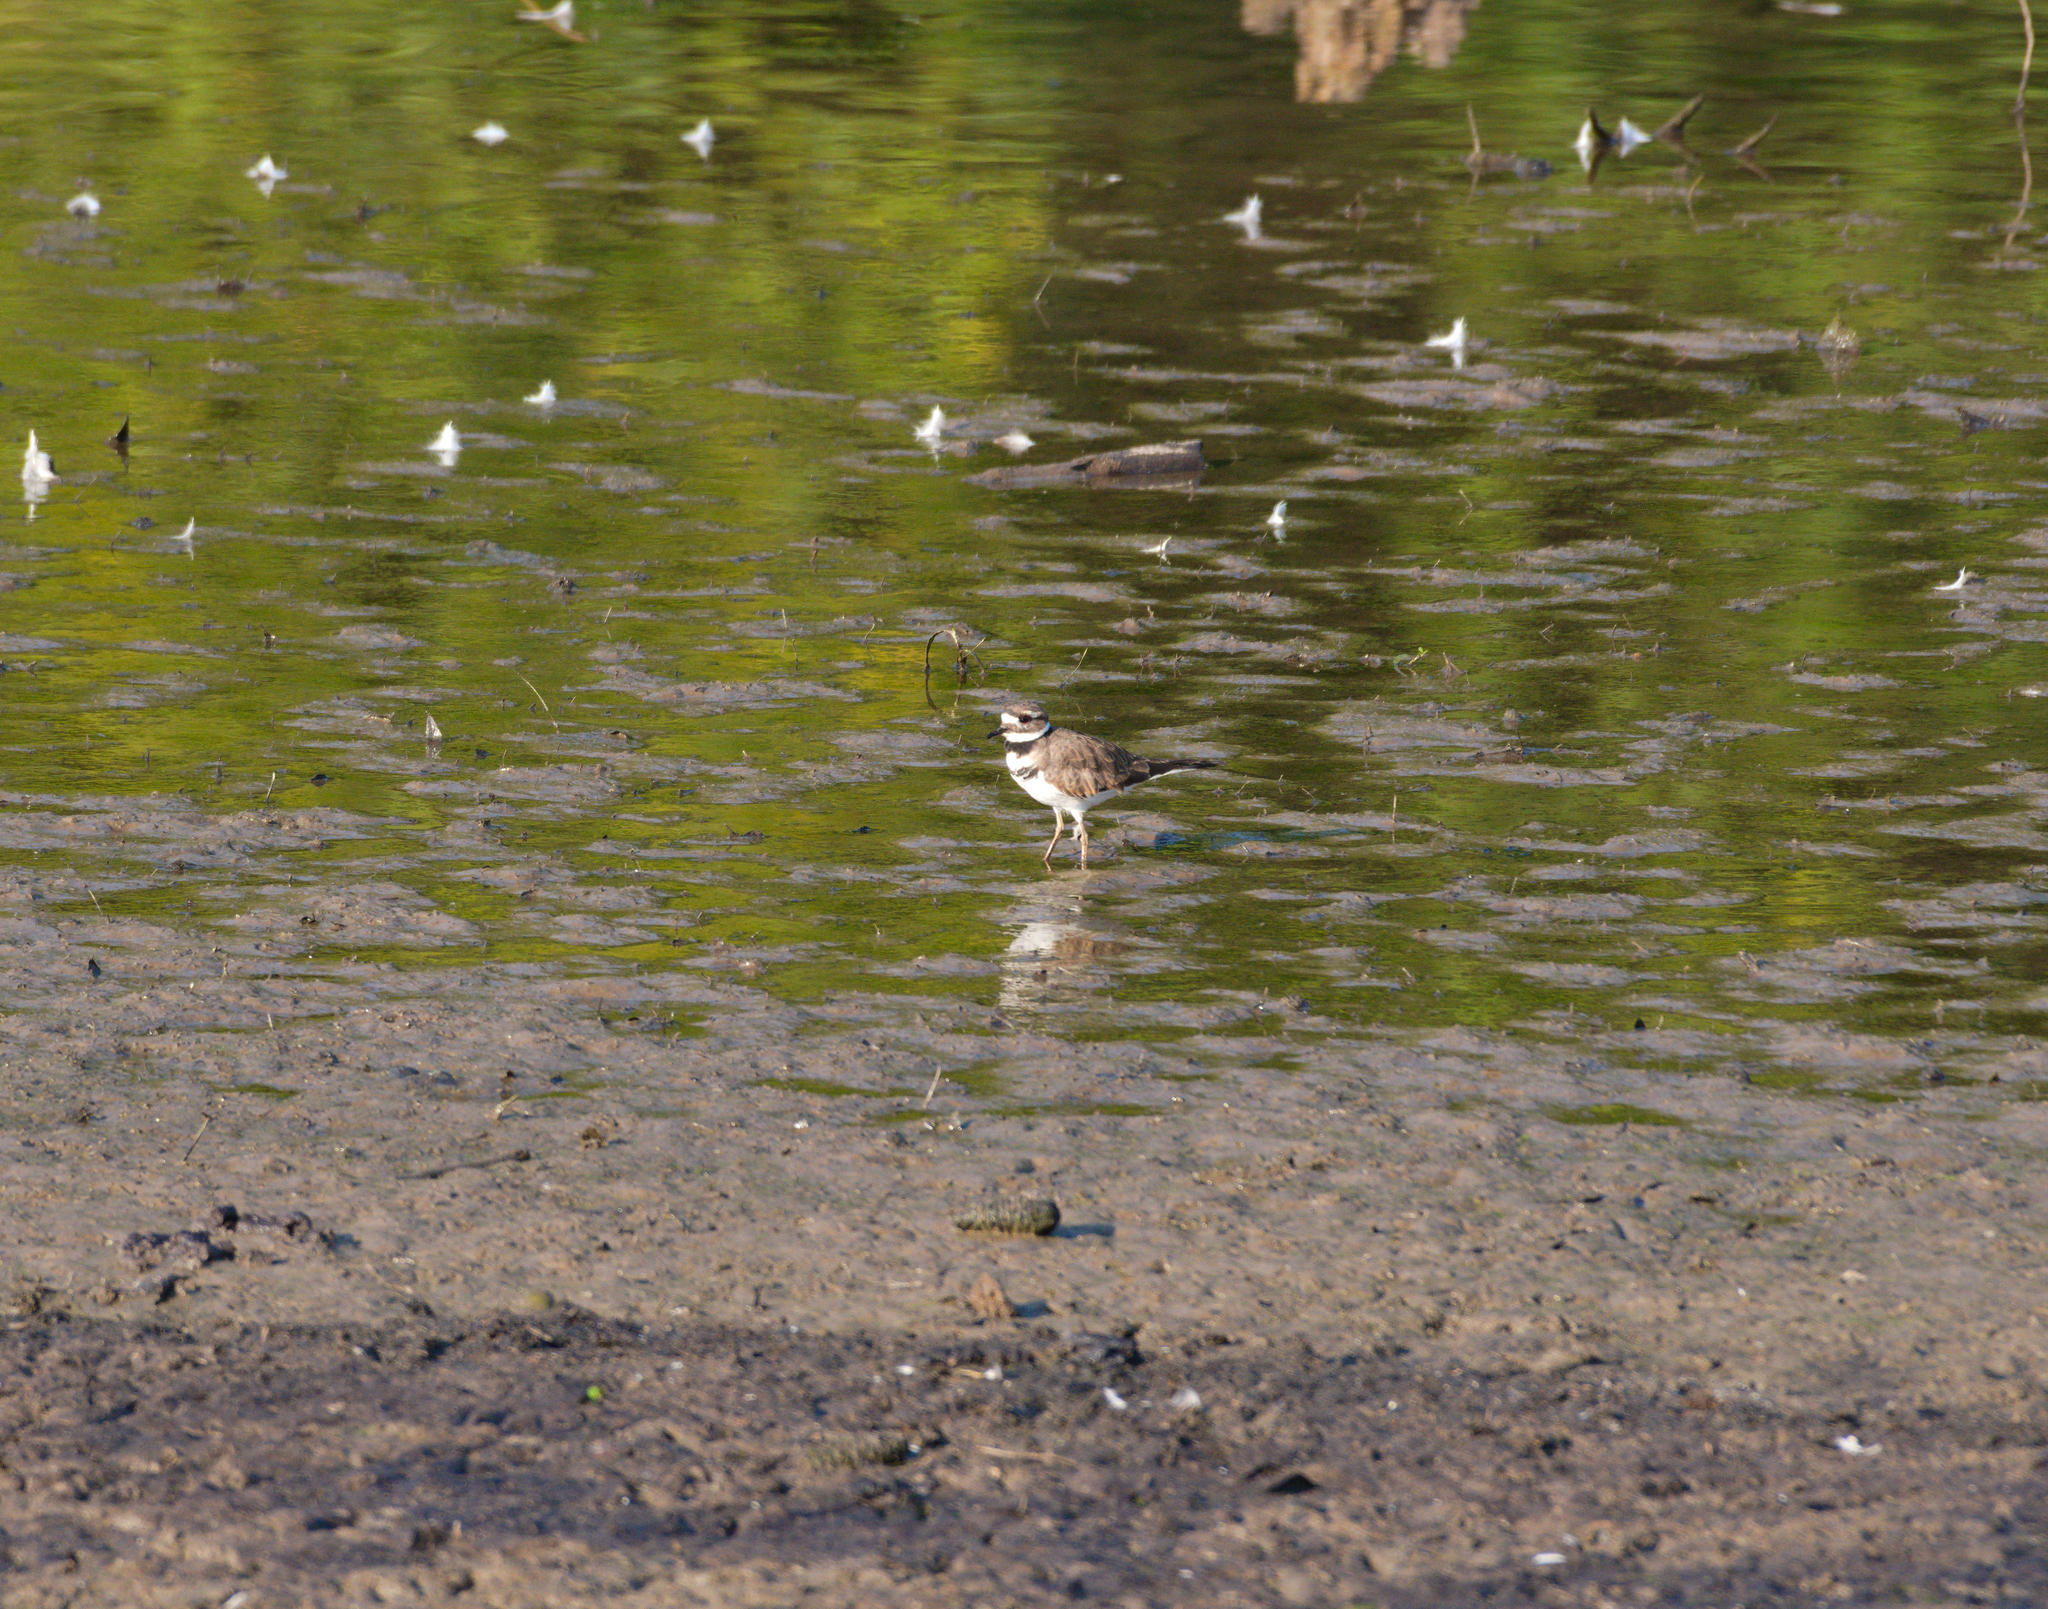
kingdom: Animalia
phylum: Chordata
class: Aves
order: Charadriiformes
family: Charadriidae
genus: Charadrius
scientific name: Charadrius vociferus
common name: Killdeer
